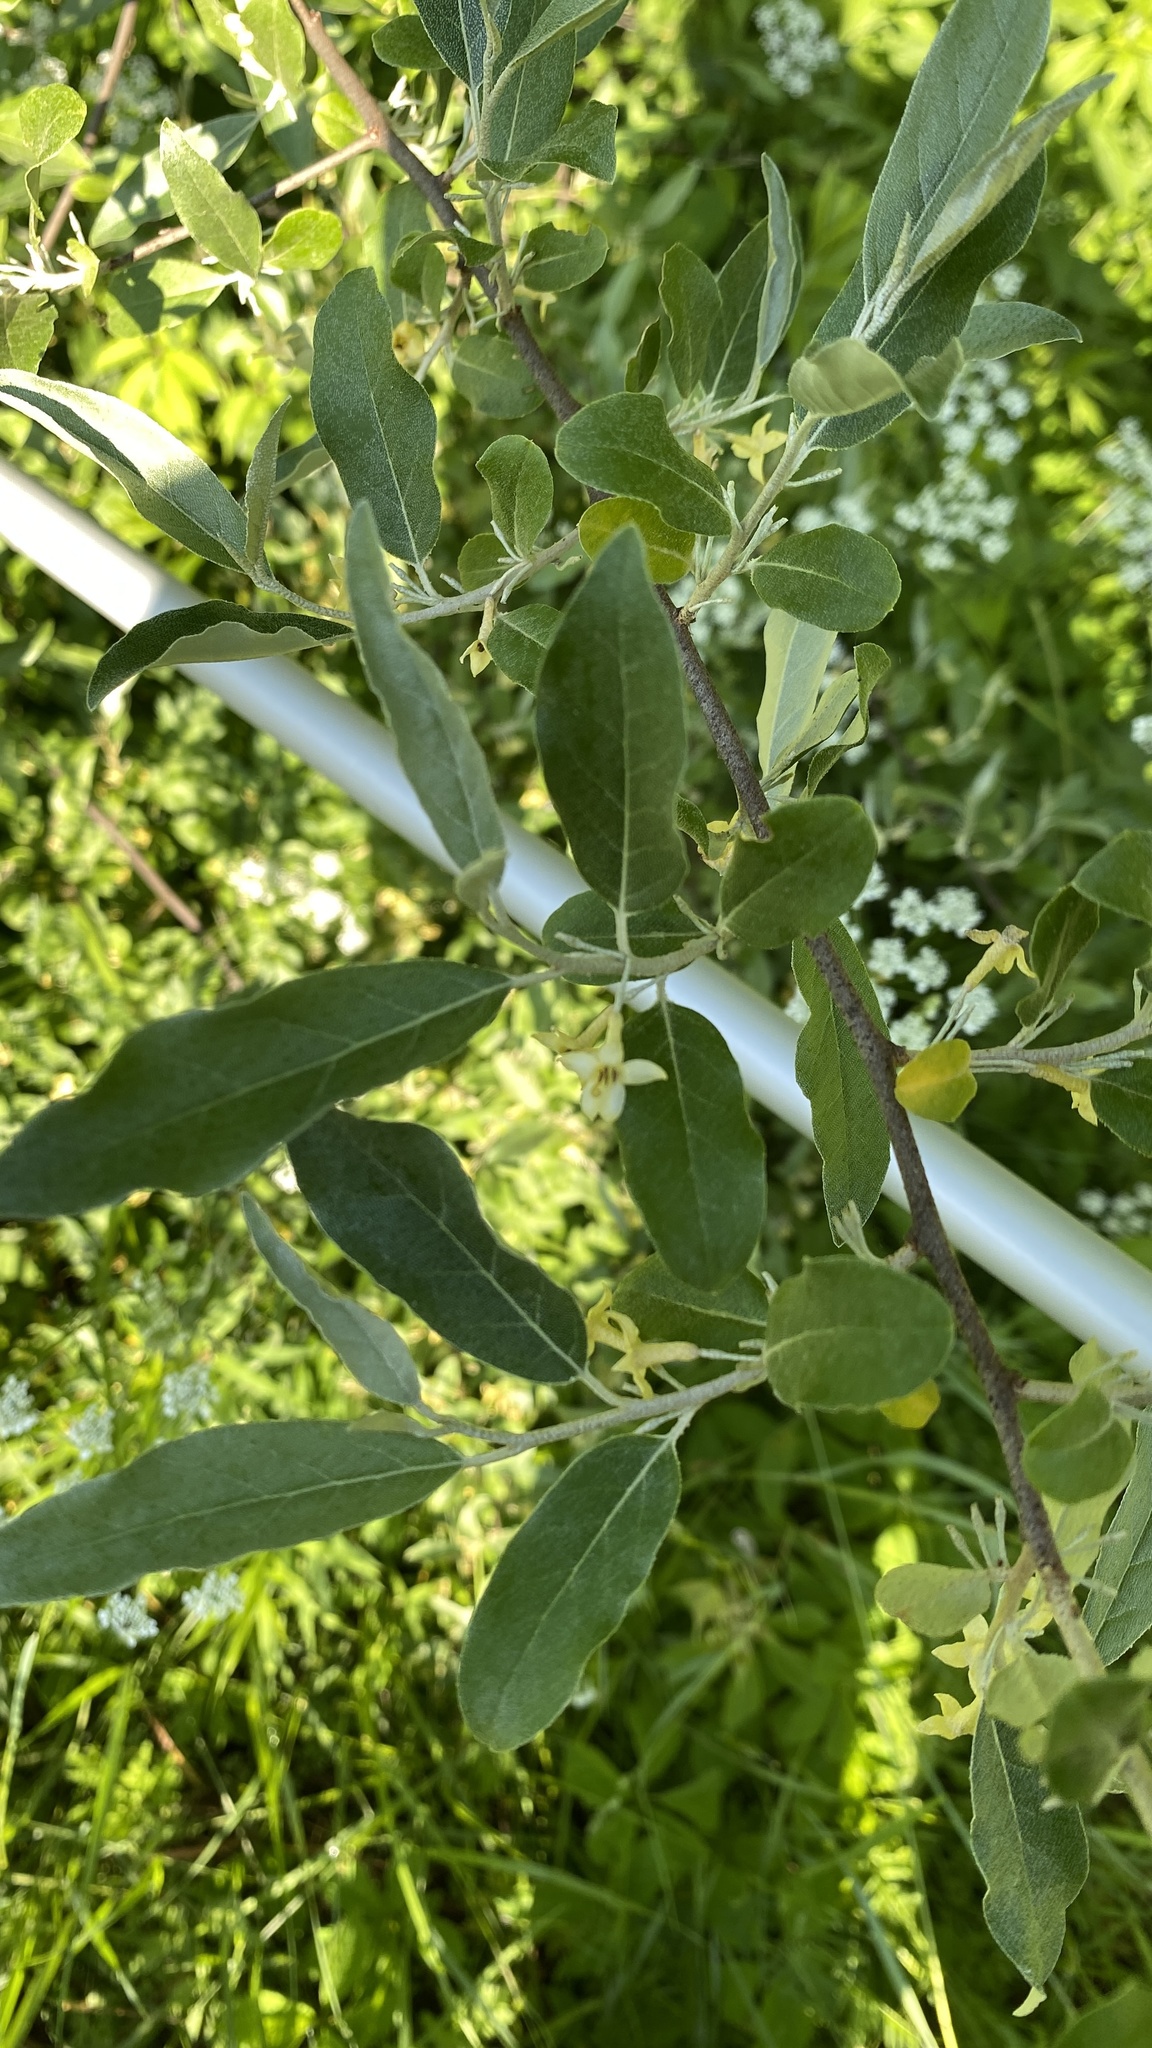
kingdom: Plantae
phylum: Tracheophyta
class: Magnoliopsida
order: Rosales
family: Elaeagnaceae
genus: Elaeagnus
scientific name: Elaeagnus umbellata
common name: Autumn olive
